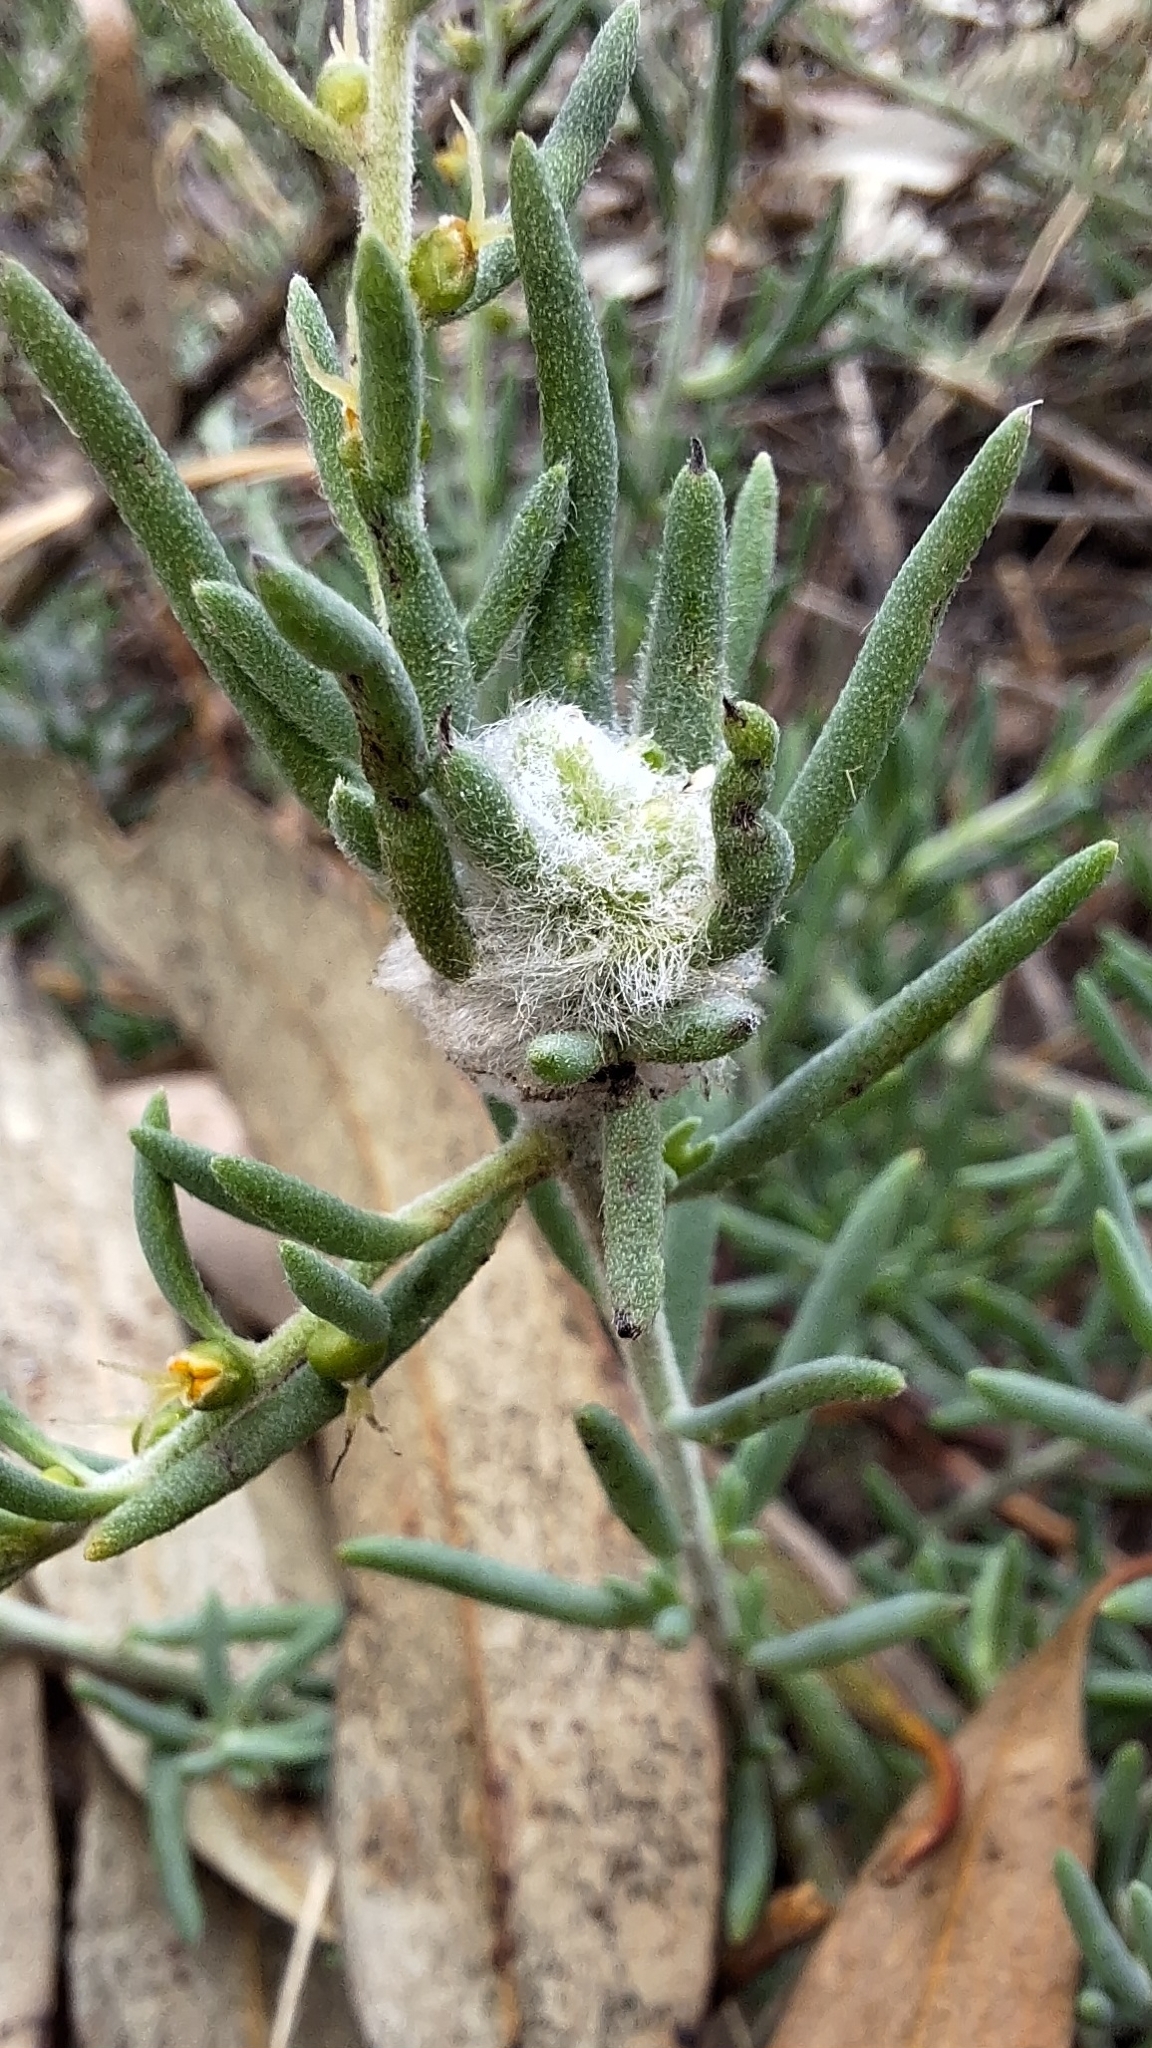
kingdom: Animalia
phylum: Arthropoda
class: Insecta
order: Diptera
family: Cecidomyiidae
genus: Asphondylia
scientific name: Asphondylia tonsura
